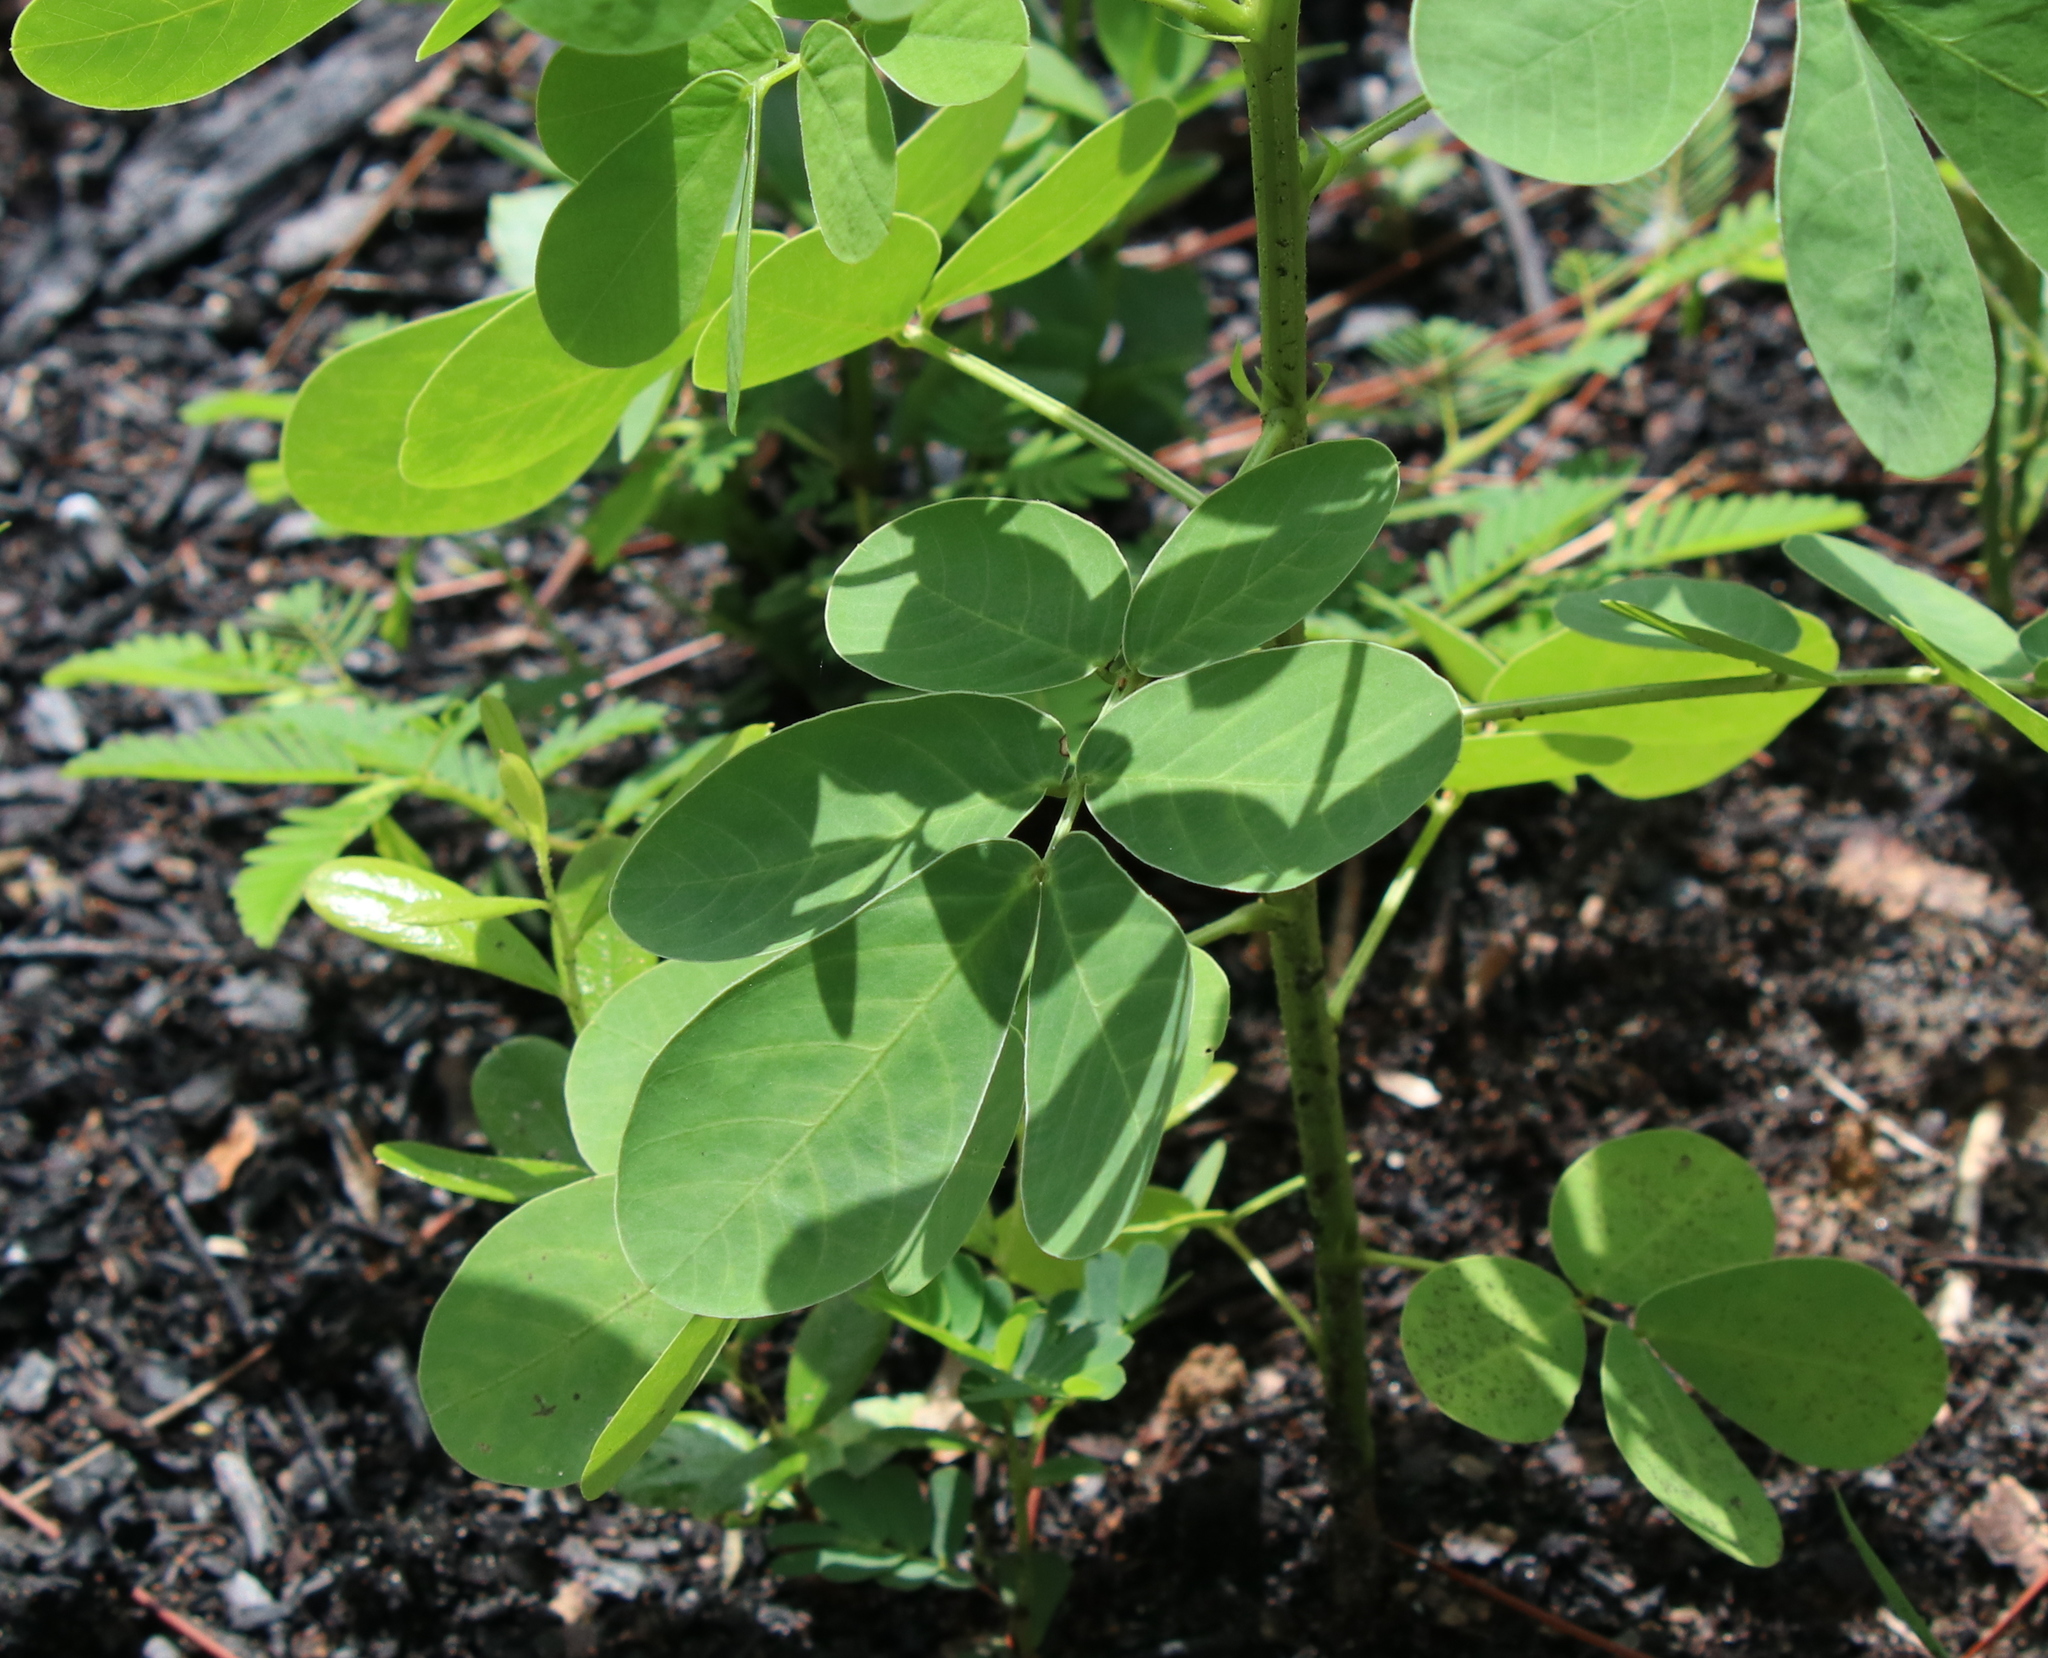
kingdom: Plantae
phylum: Tracheophyta
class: Magnoliopsida
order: Fabales
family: Fabaceae
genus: Senna
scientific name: Senna obtusifolia
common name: Java-bean
